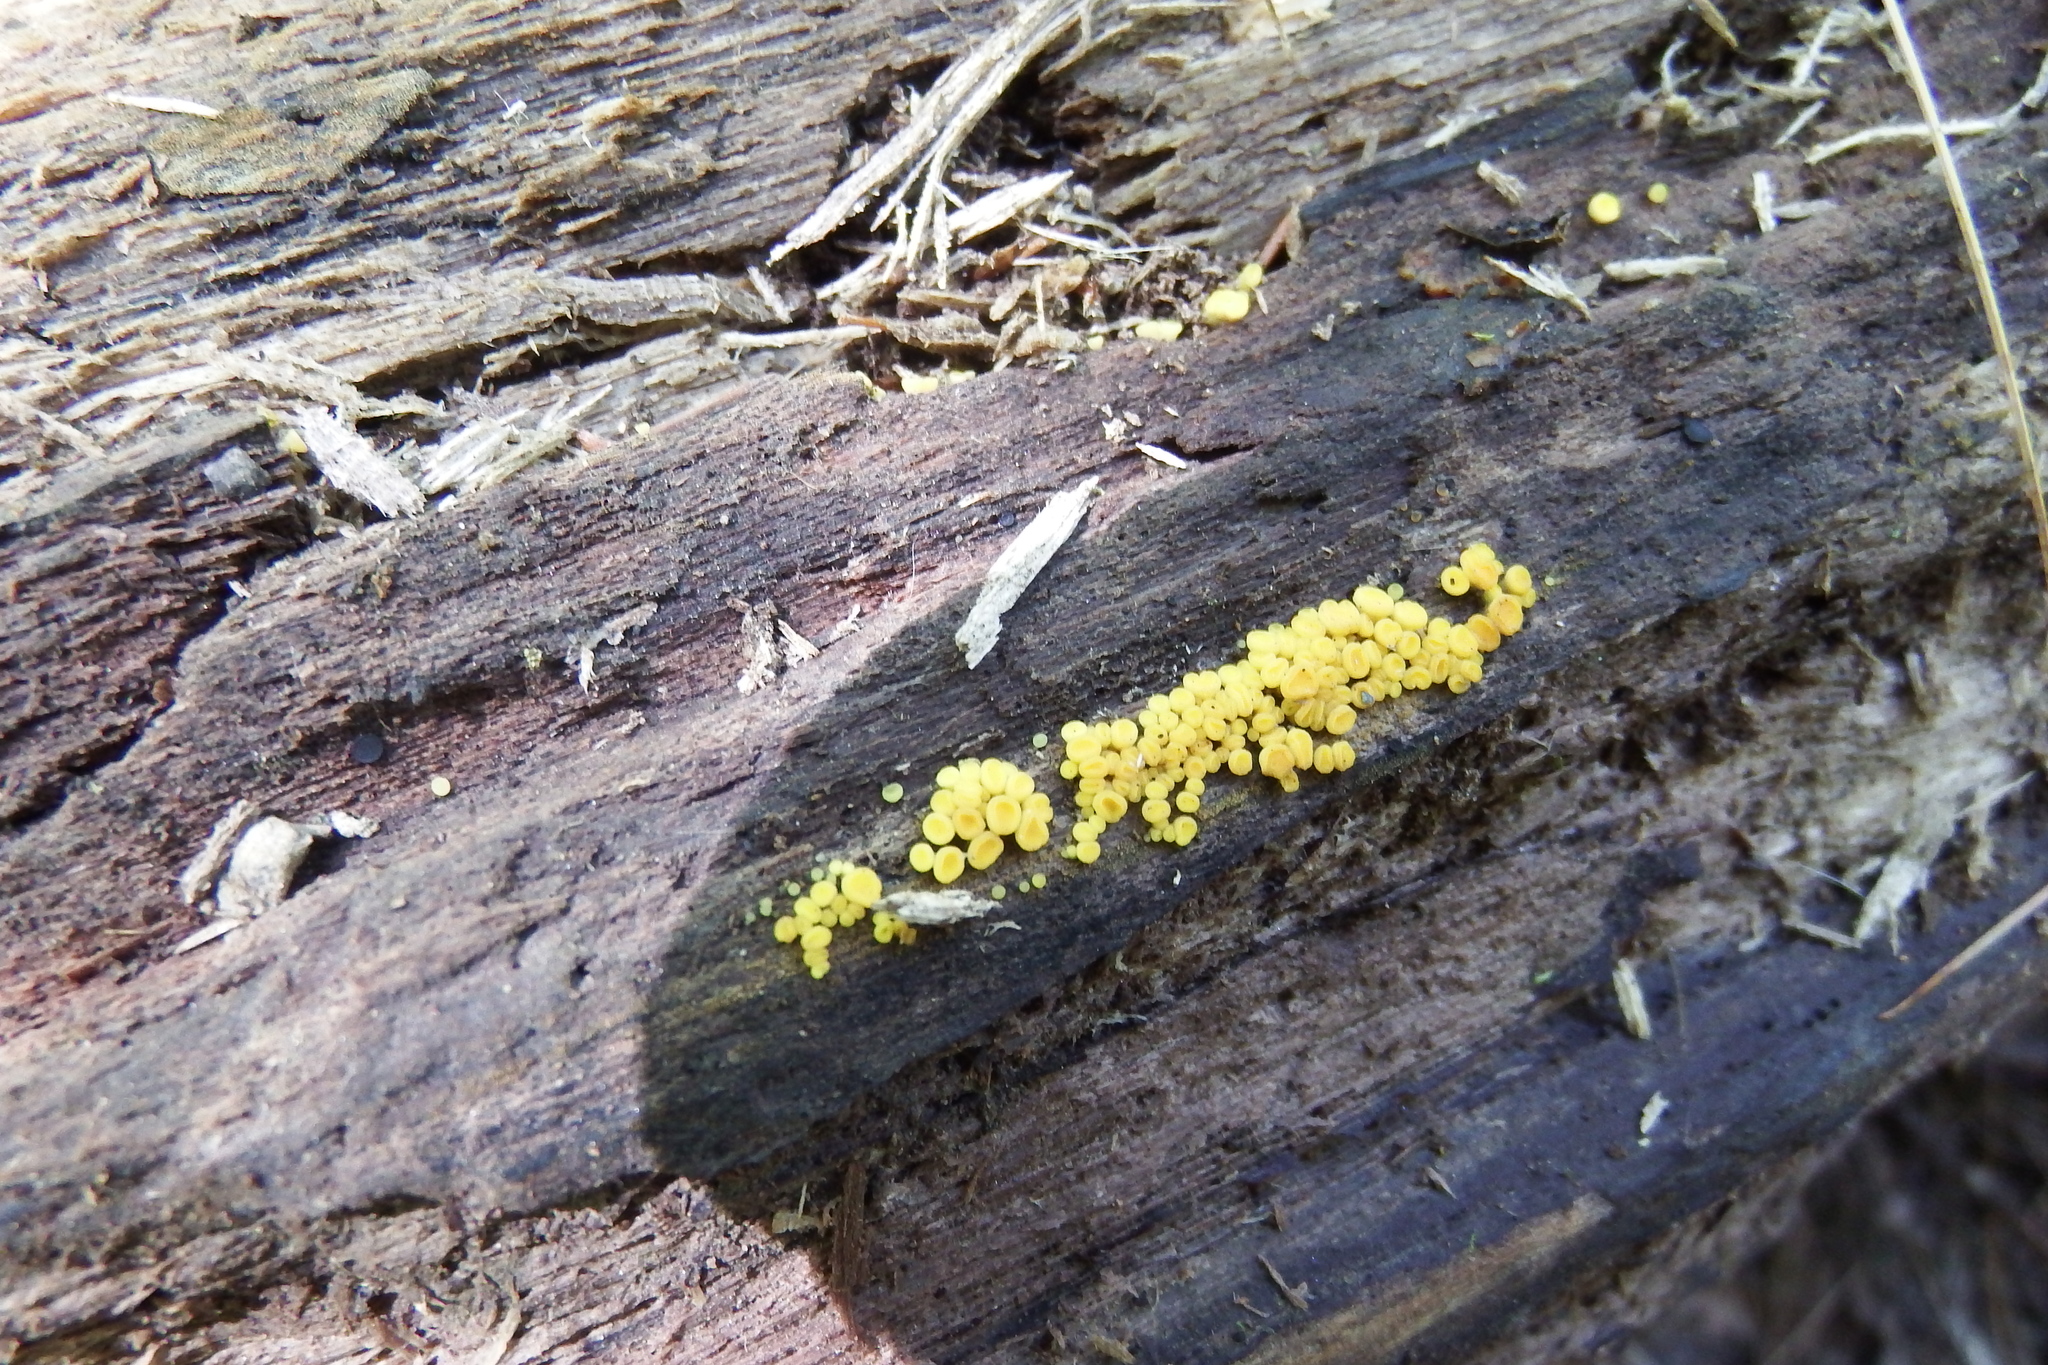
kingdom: Fungi
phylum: Ascomycota
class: Leotiomycetes
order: Helotiales
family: Pezizellaceae
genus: Calycina
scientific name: Calycina citrina
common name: Yellow fairy cups
